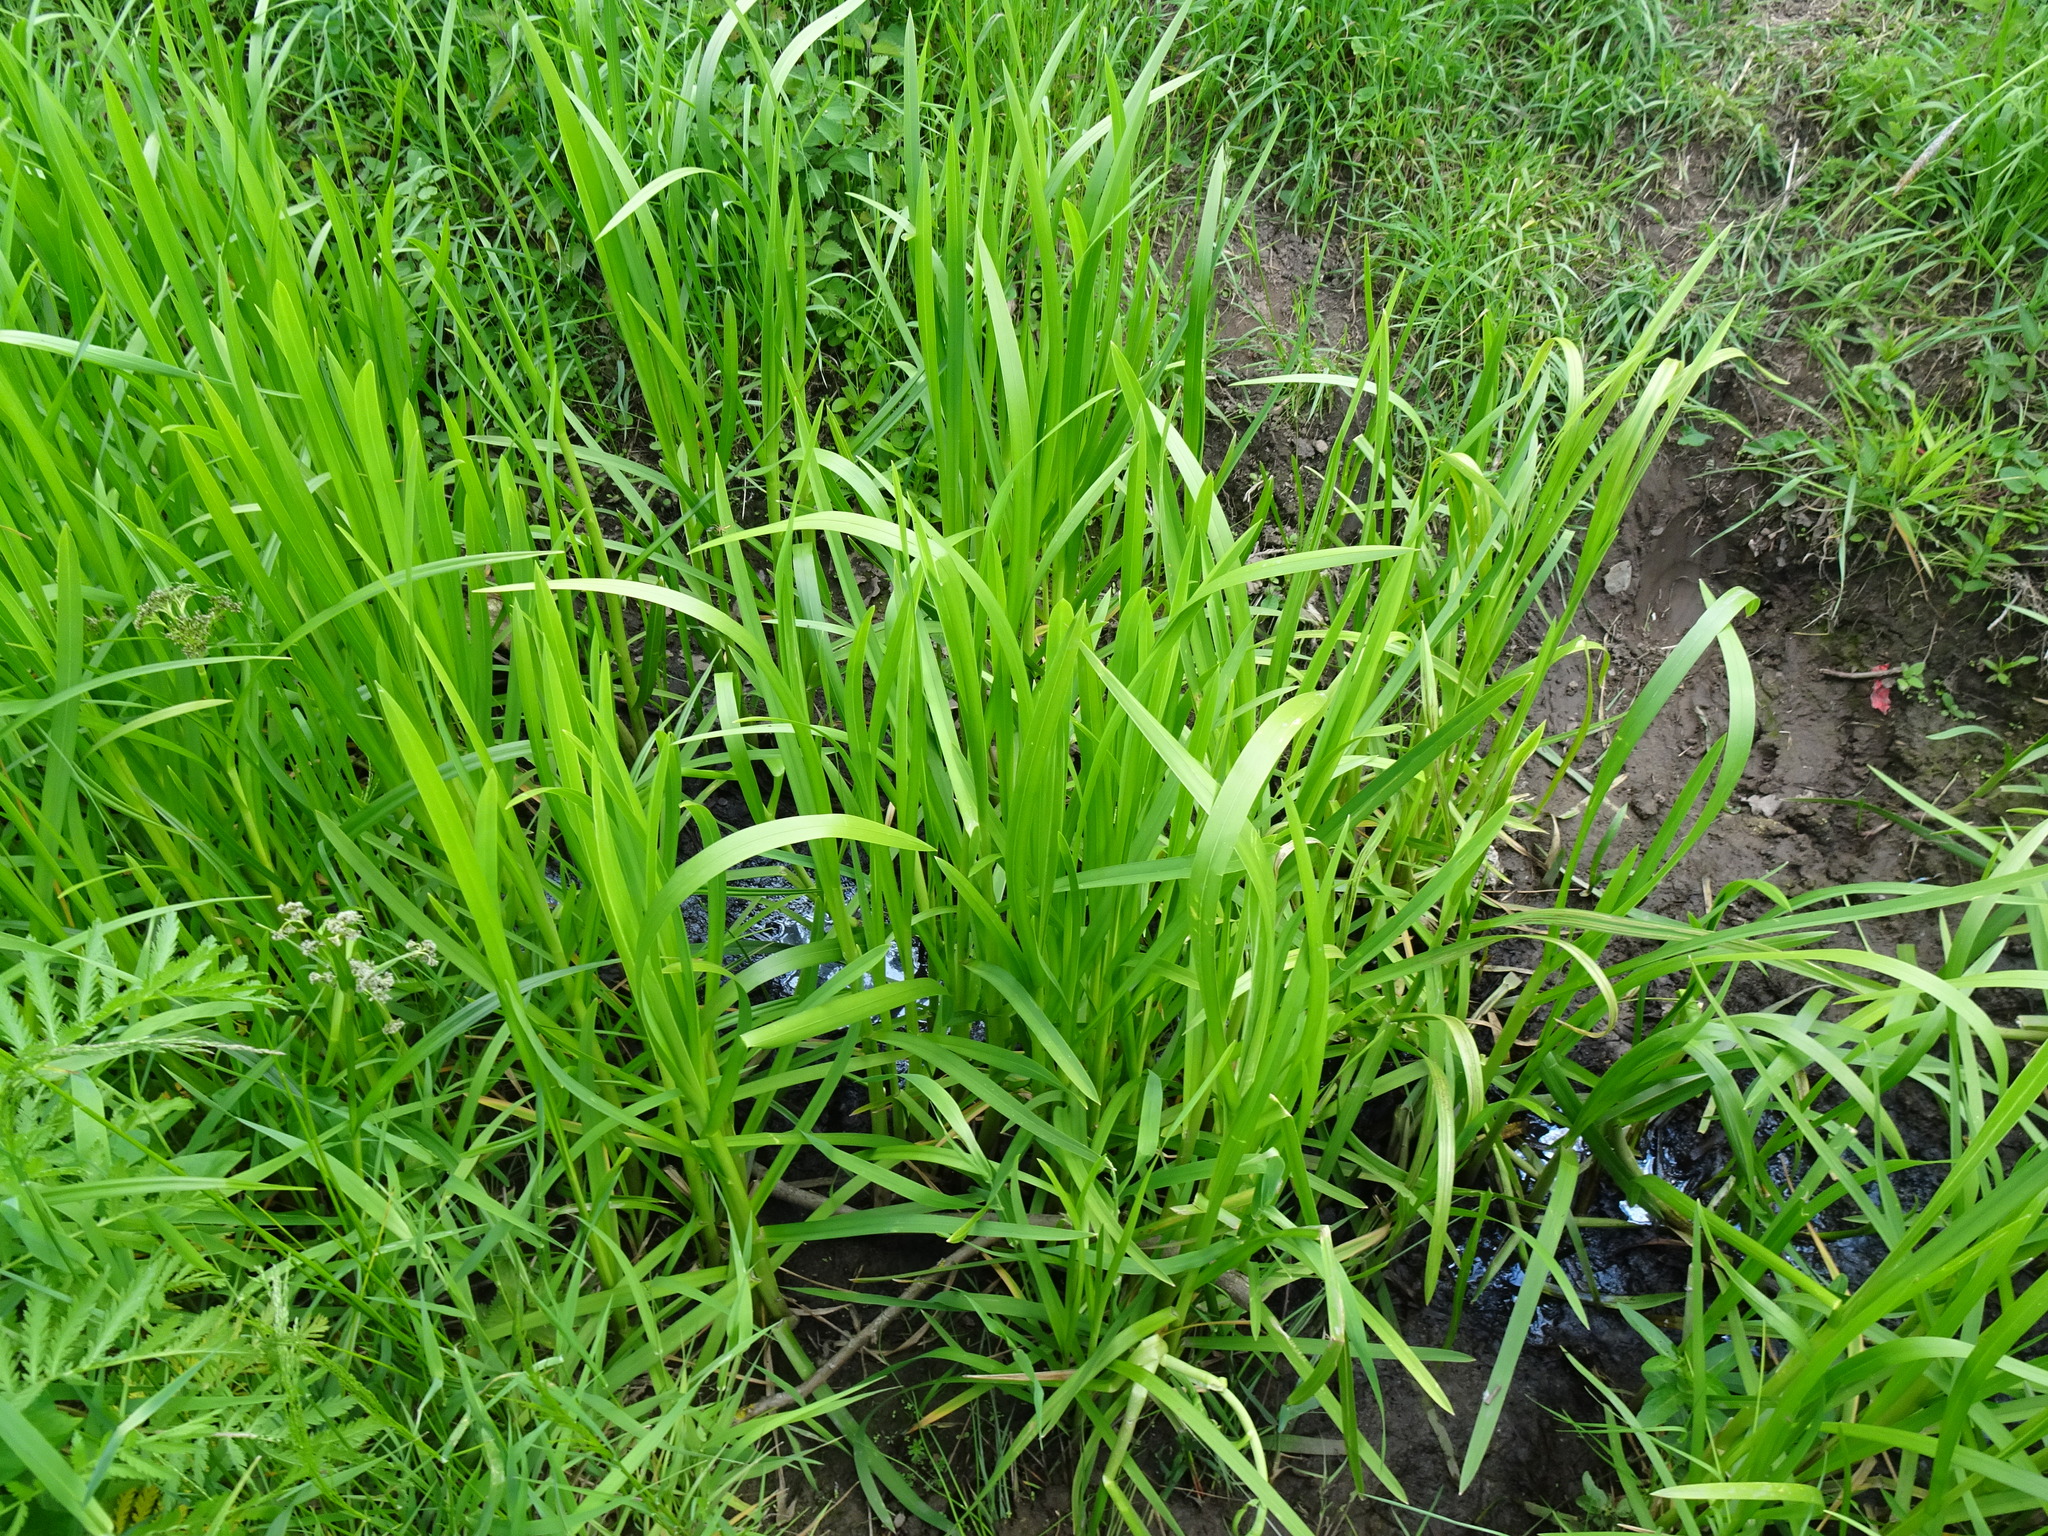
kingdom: Plantae
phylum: Tracheophyta
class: Liliopsida
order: Poales
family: Poaceae
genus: Glyceria
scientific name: Glyceria maxima
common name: Reed mannagrass
